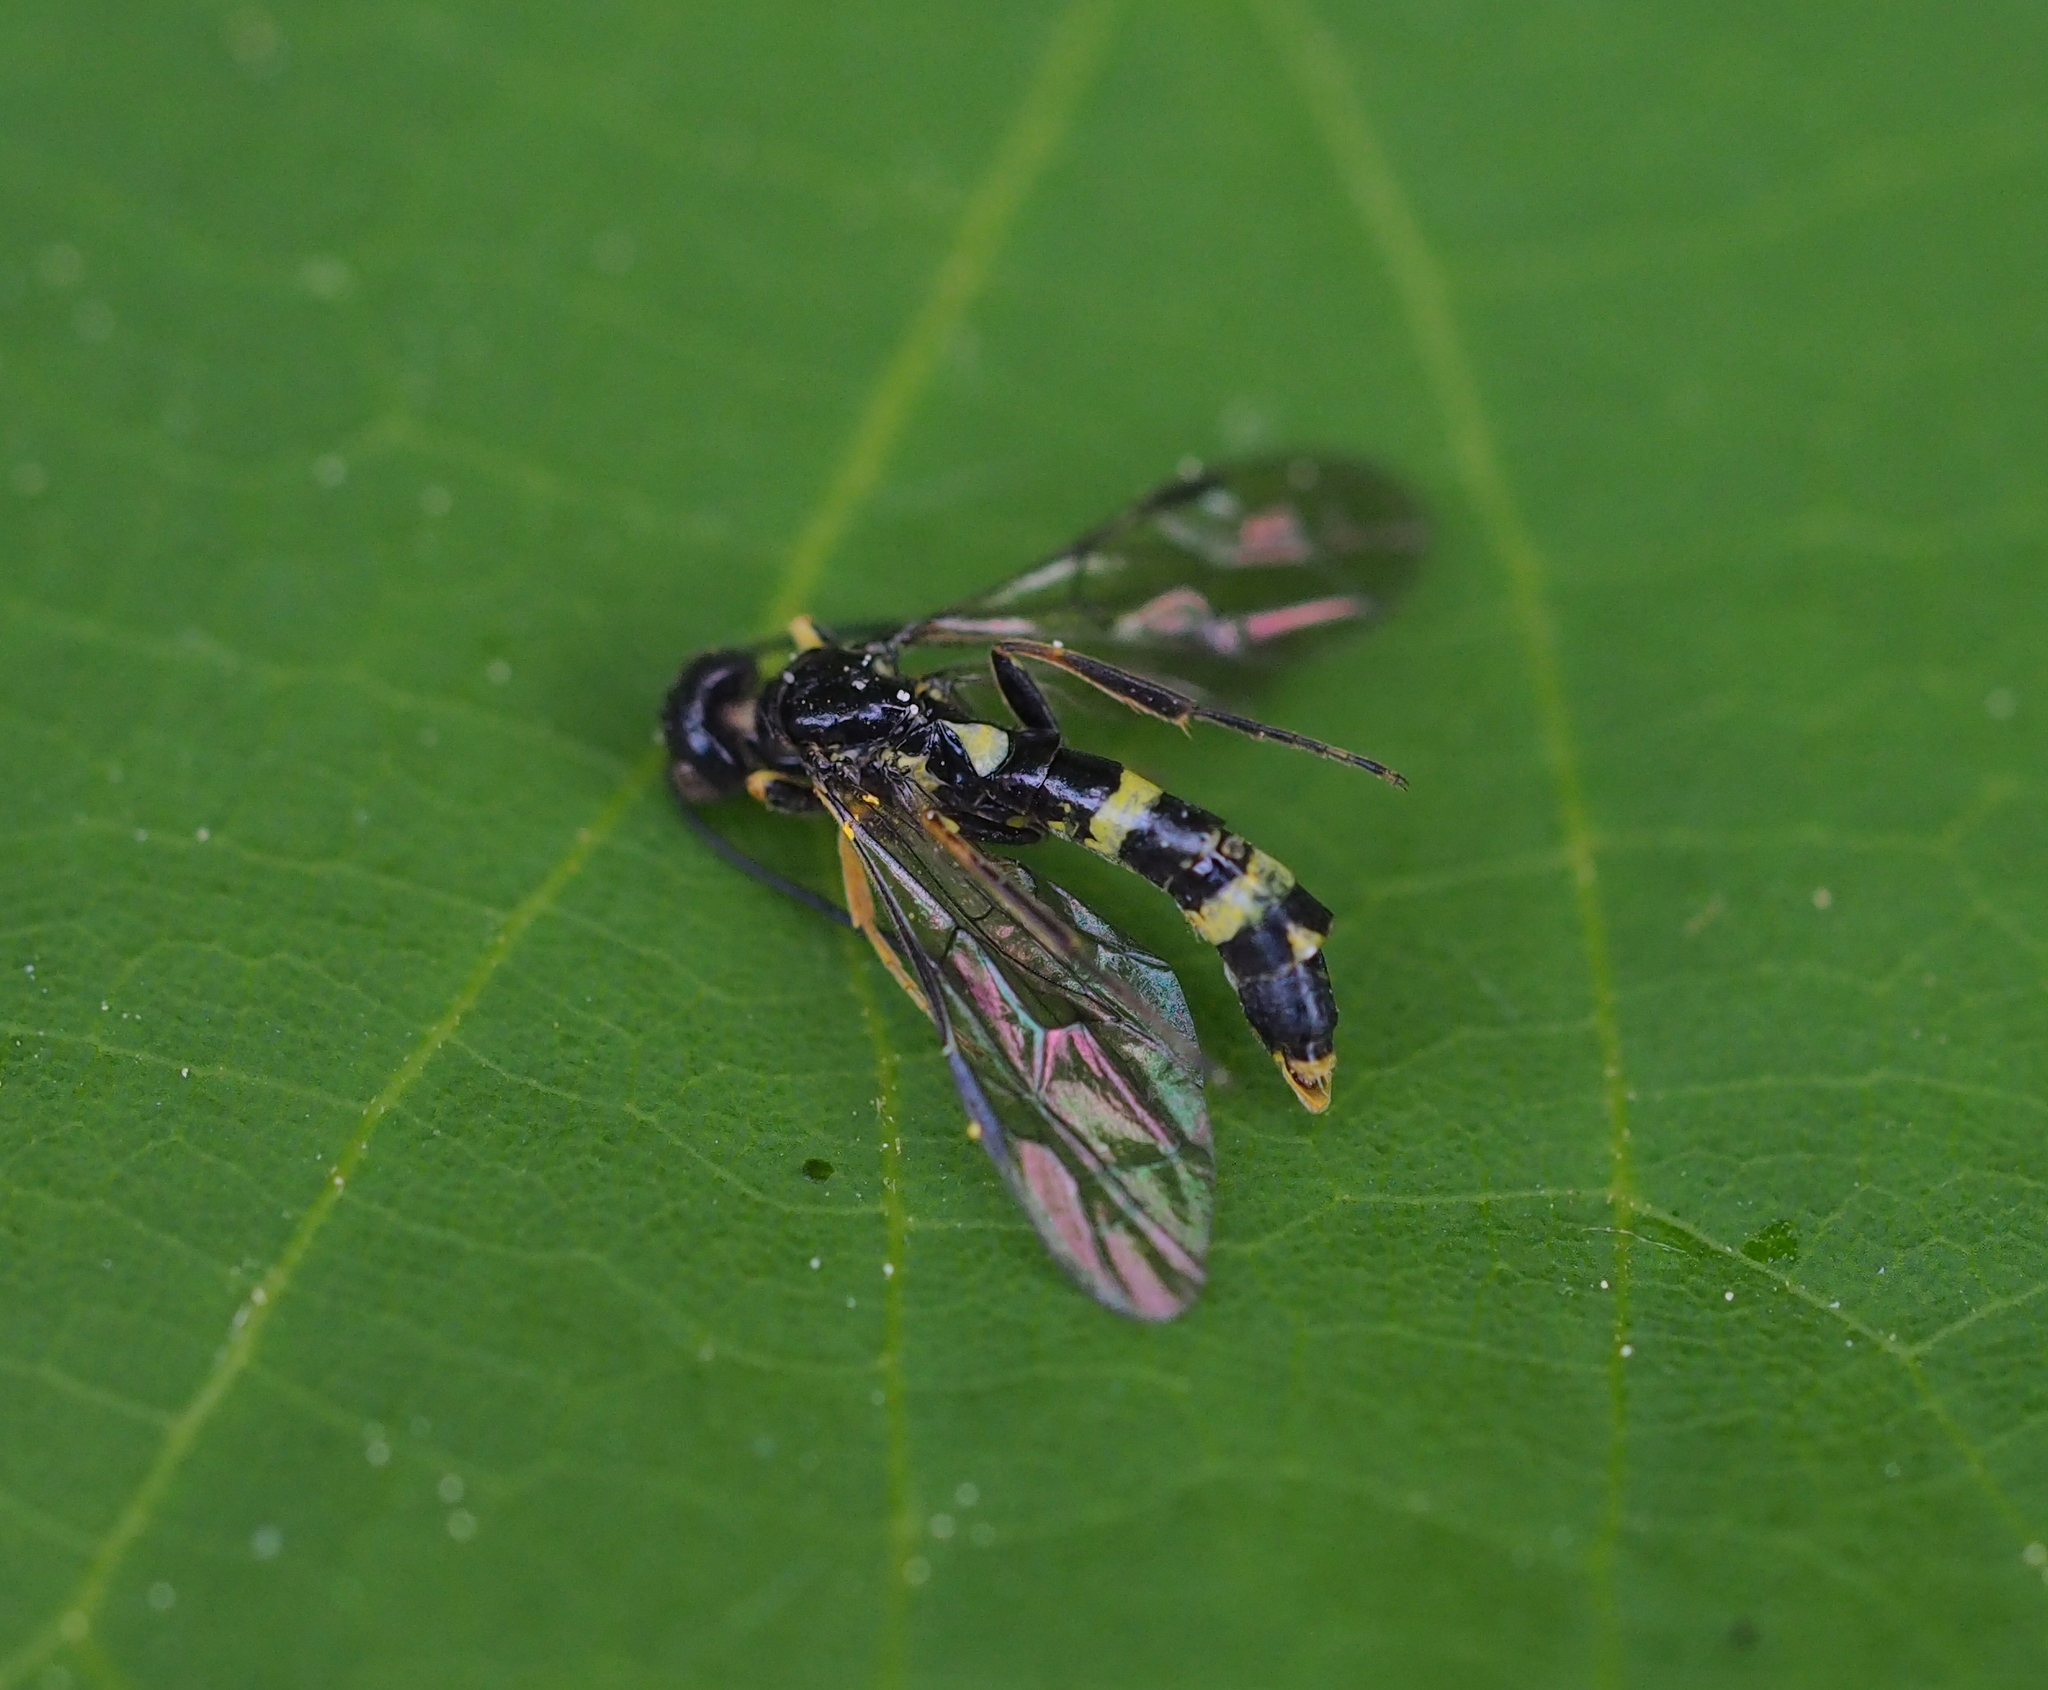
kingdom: Animalia
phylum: Arthropoda
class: Insecta
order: Hymenoptera
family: Cephidae
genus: Cephus
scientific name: Cephus pygmeus
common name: Wasp
